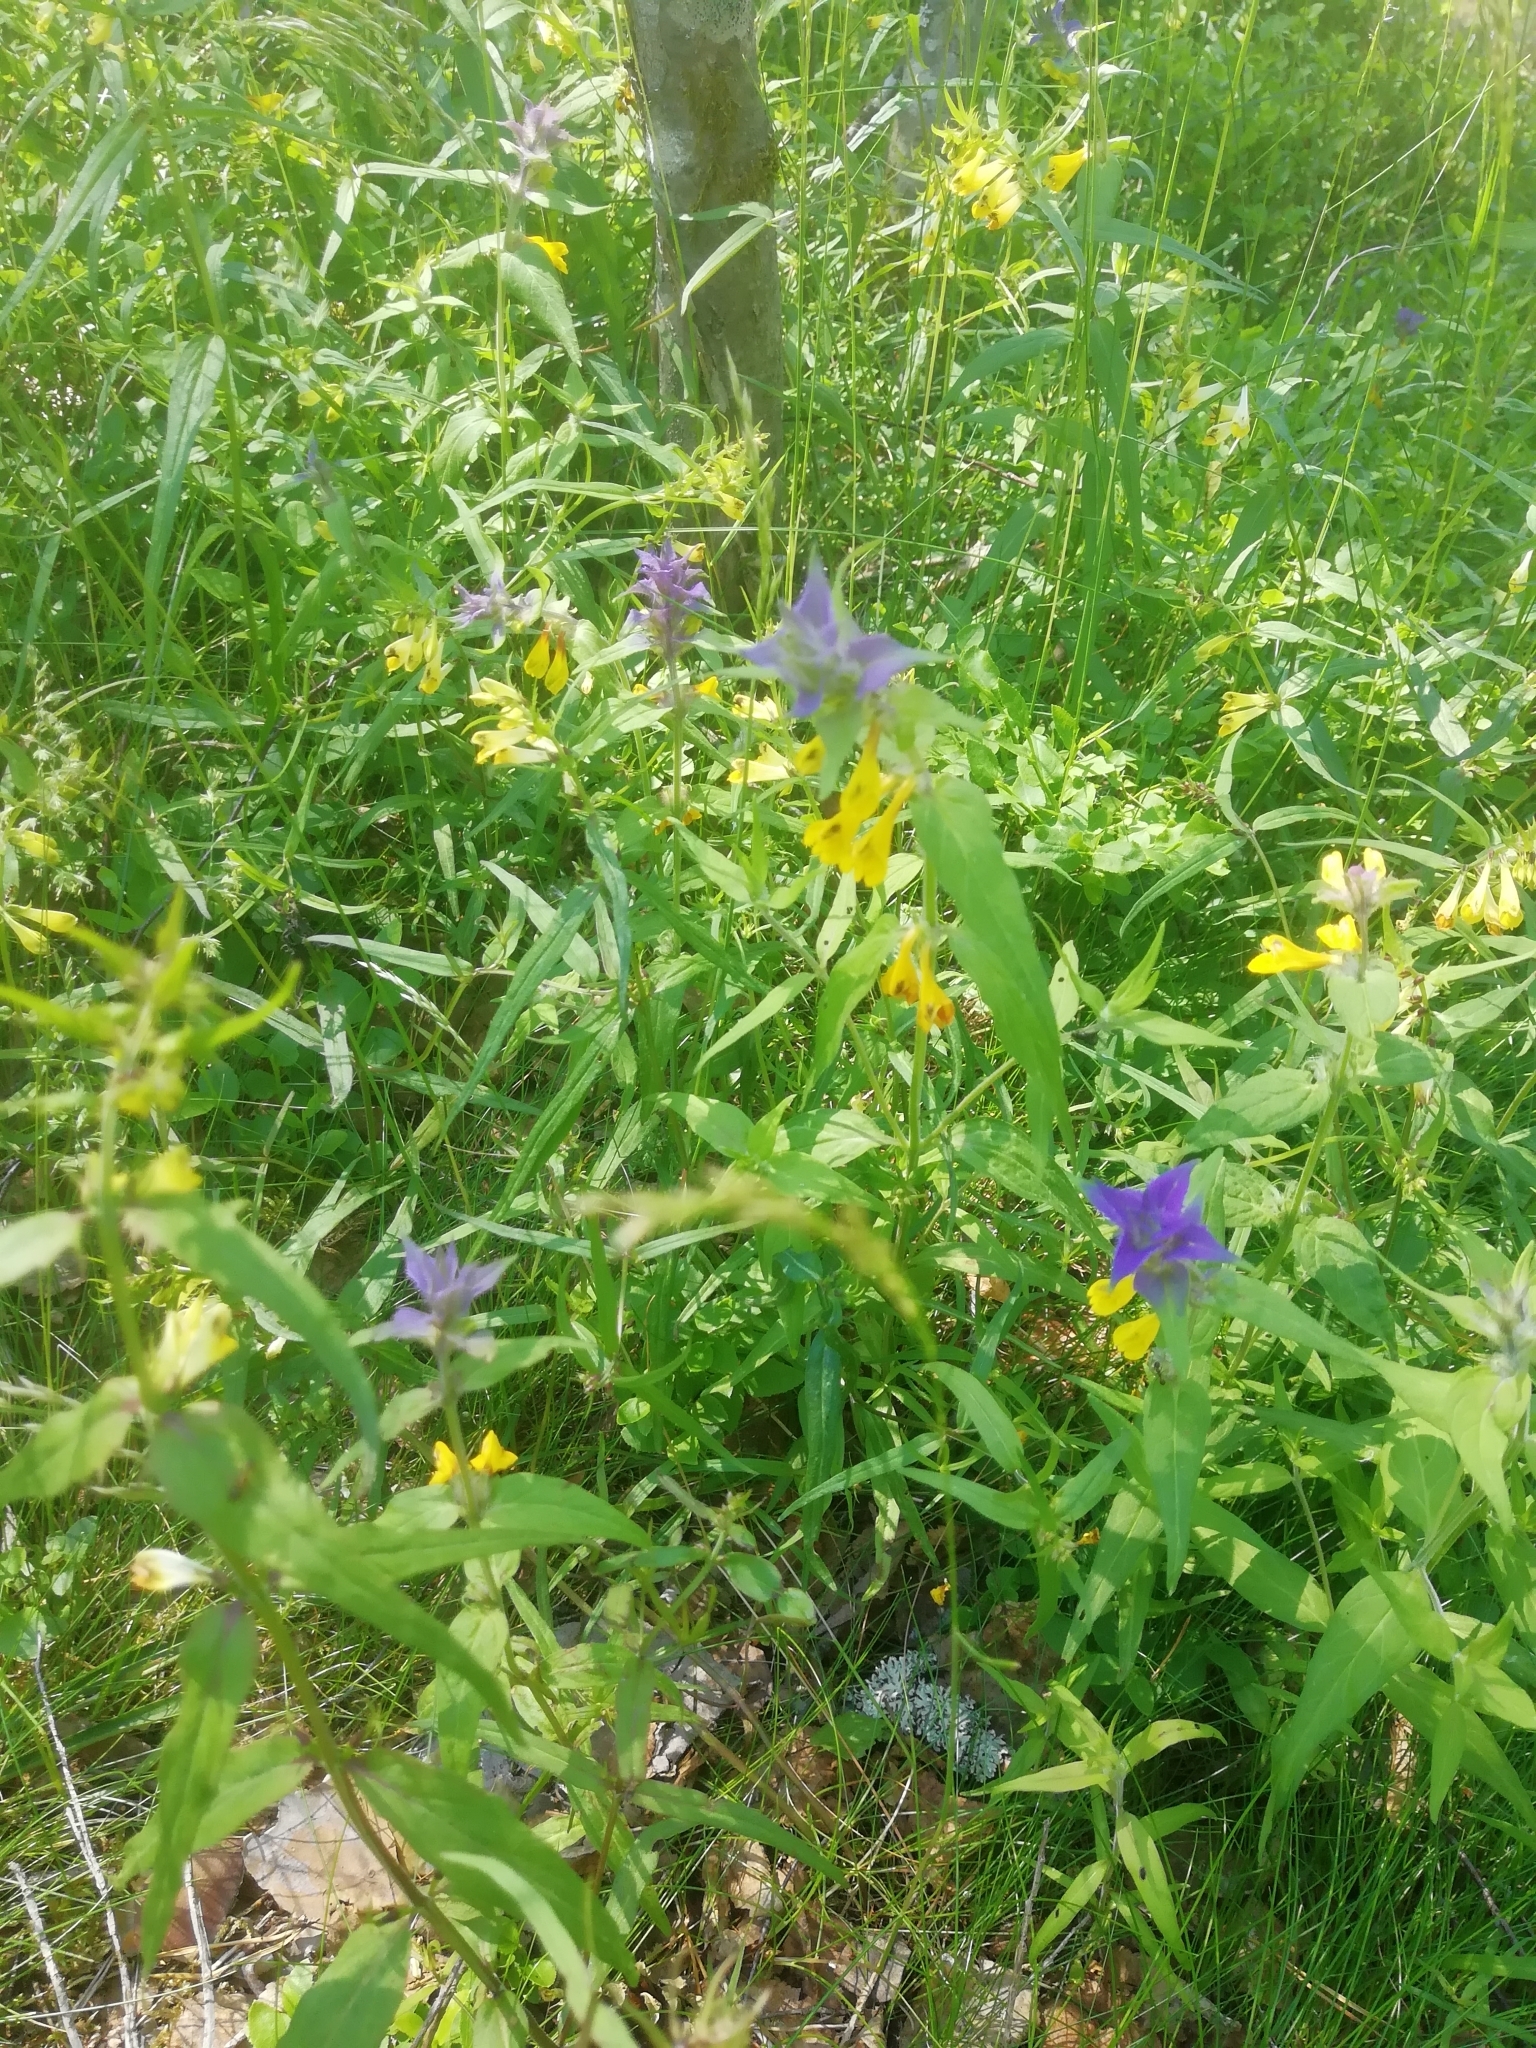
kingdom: Plantae
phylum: Tracheophyta
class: Magnoliopsida
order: Lamiales
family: Orobanchaceae
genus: Melampyrum
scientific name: Melampyrum nemorosum
